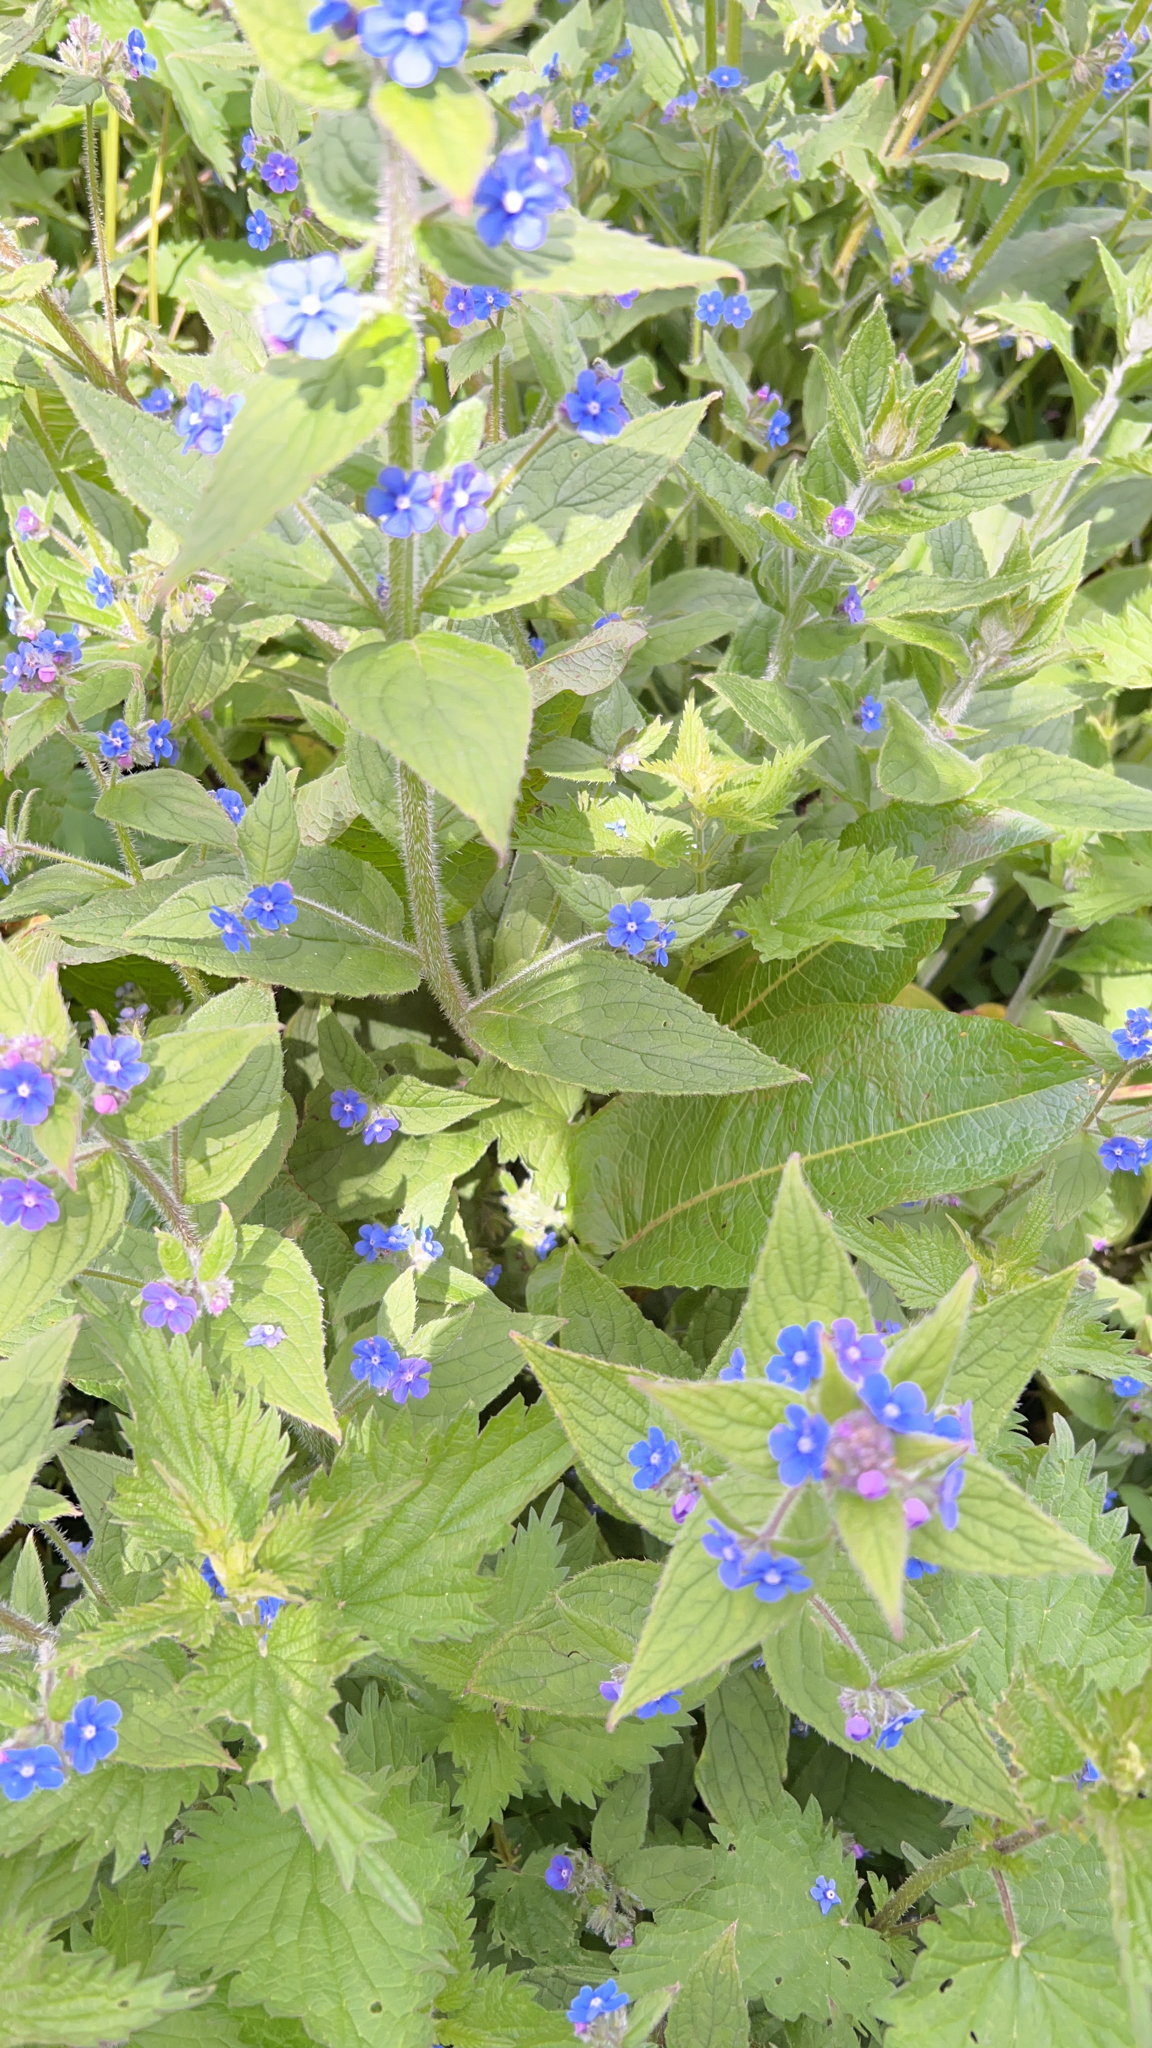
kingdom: Plantae
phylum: Tracheophyta
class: Magnoliopsida
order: Boraginales
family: Boraginaceae
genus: Pentaglottis
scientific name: Pentaglottis sempervirens
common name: Green alkanet
